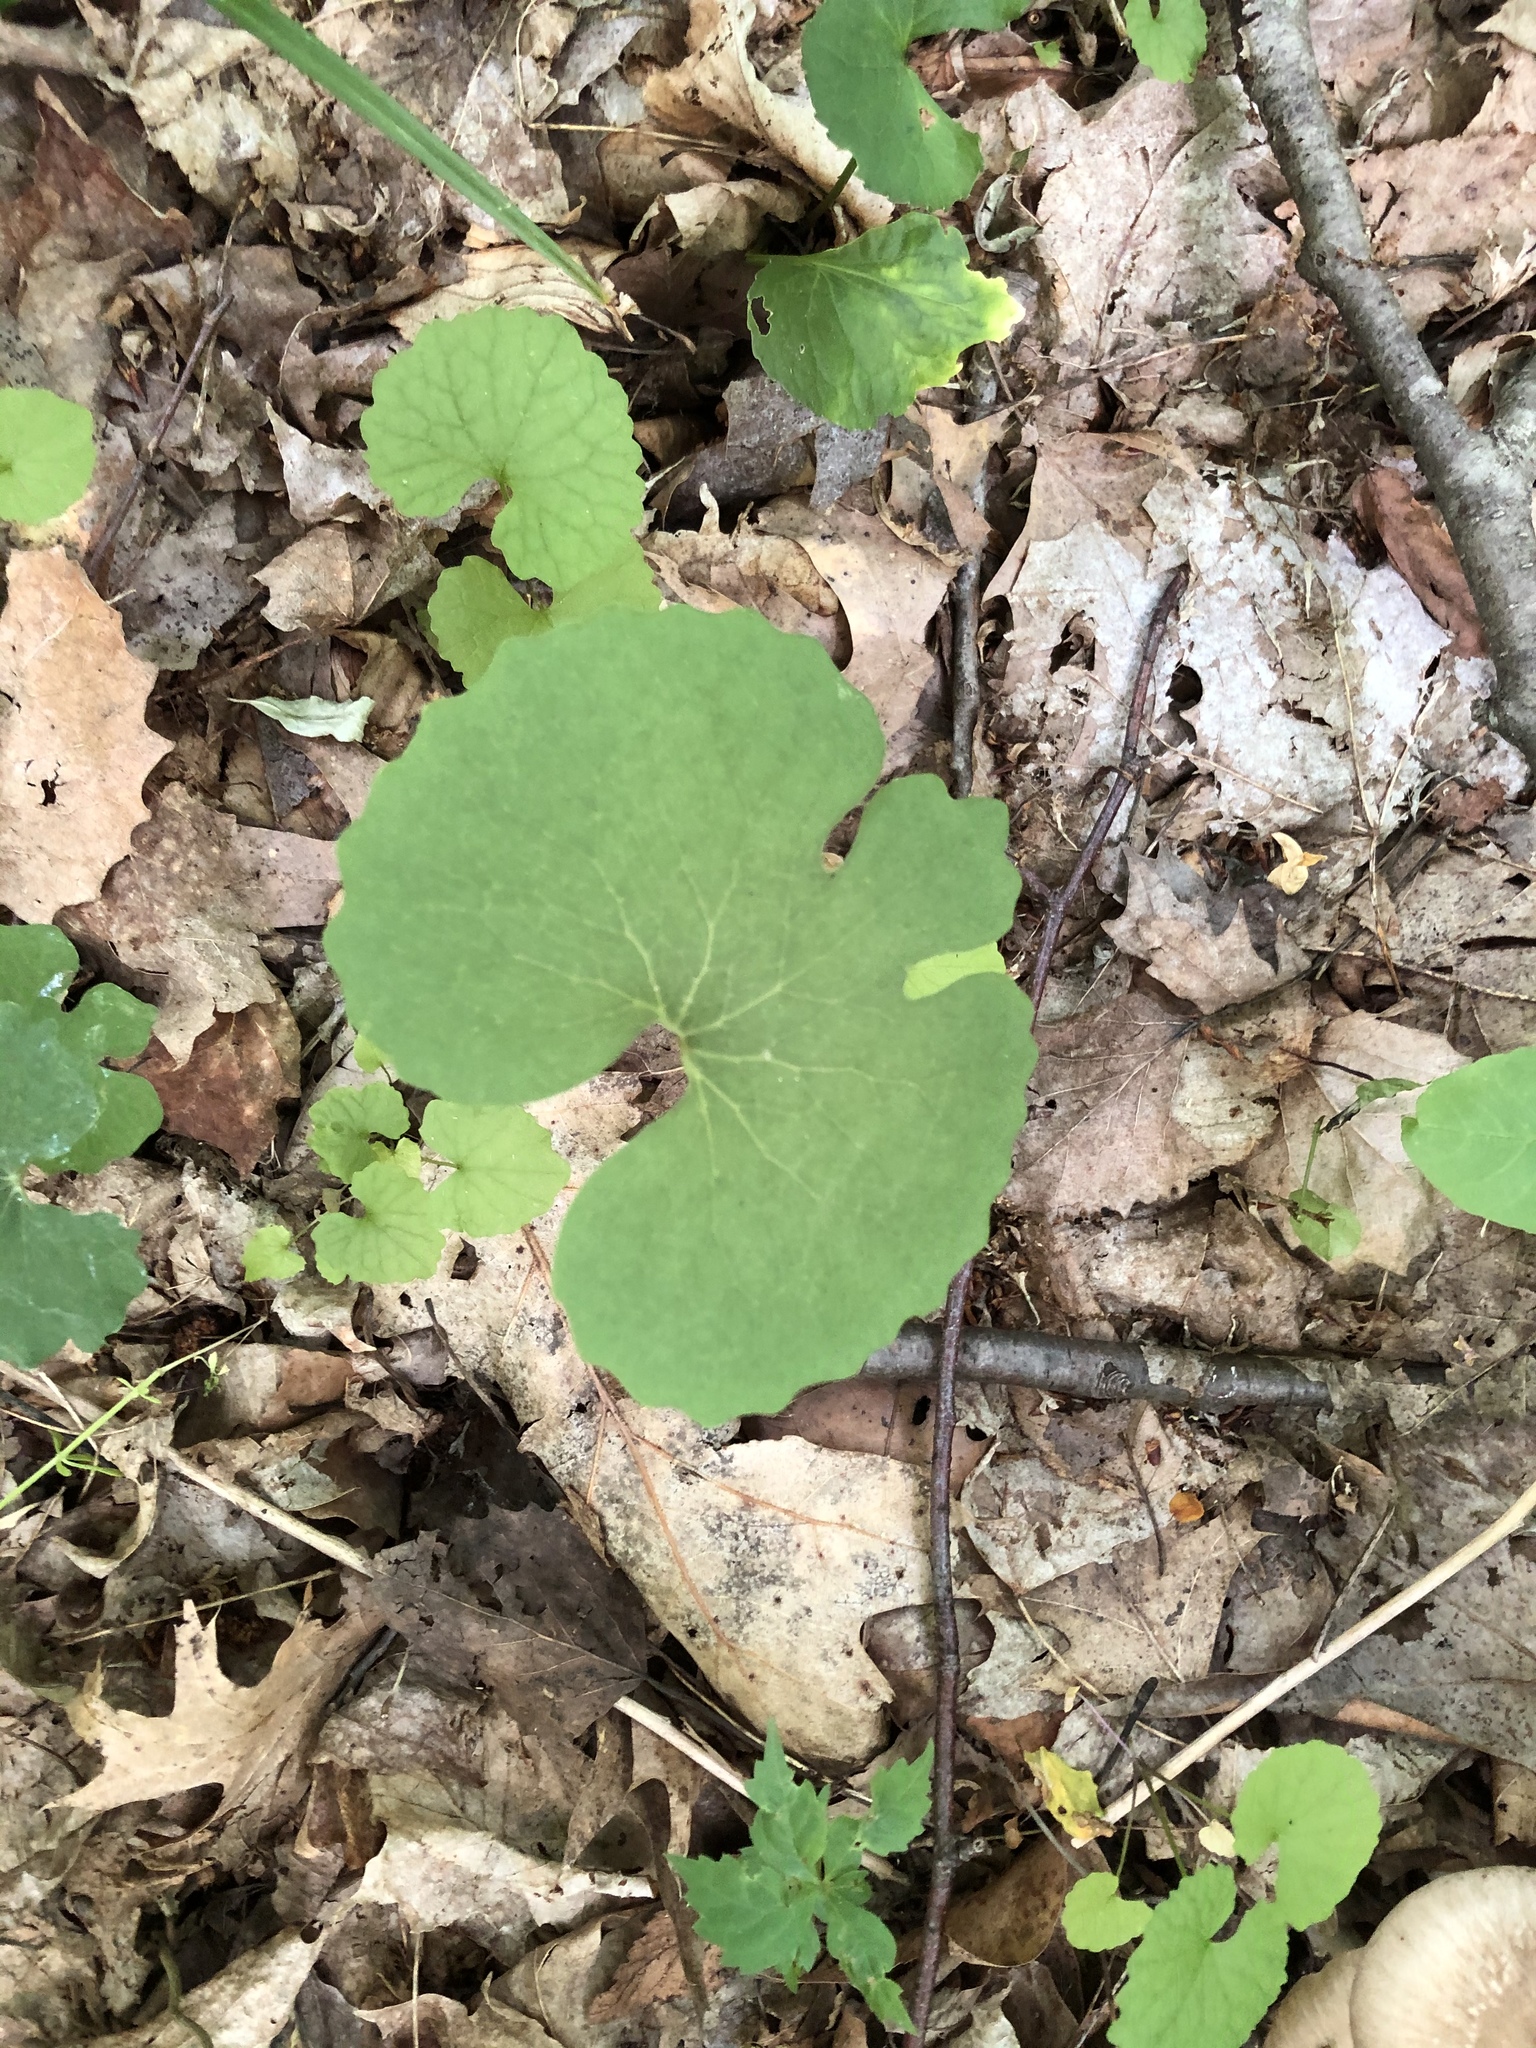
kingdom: Plantae
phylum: Tracheophyta
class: Magnoliopsida
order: Ranunculales
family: Papaveraceae
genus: Sanguinaria
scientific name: Sanguinaria canadensis
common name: Bloodroot
